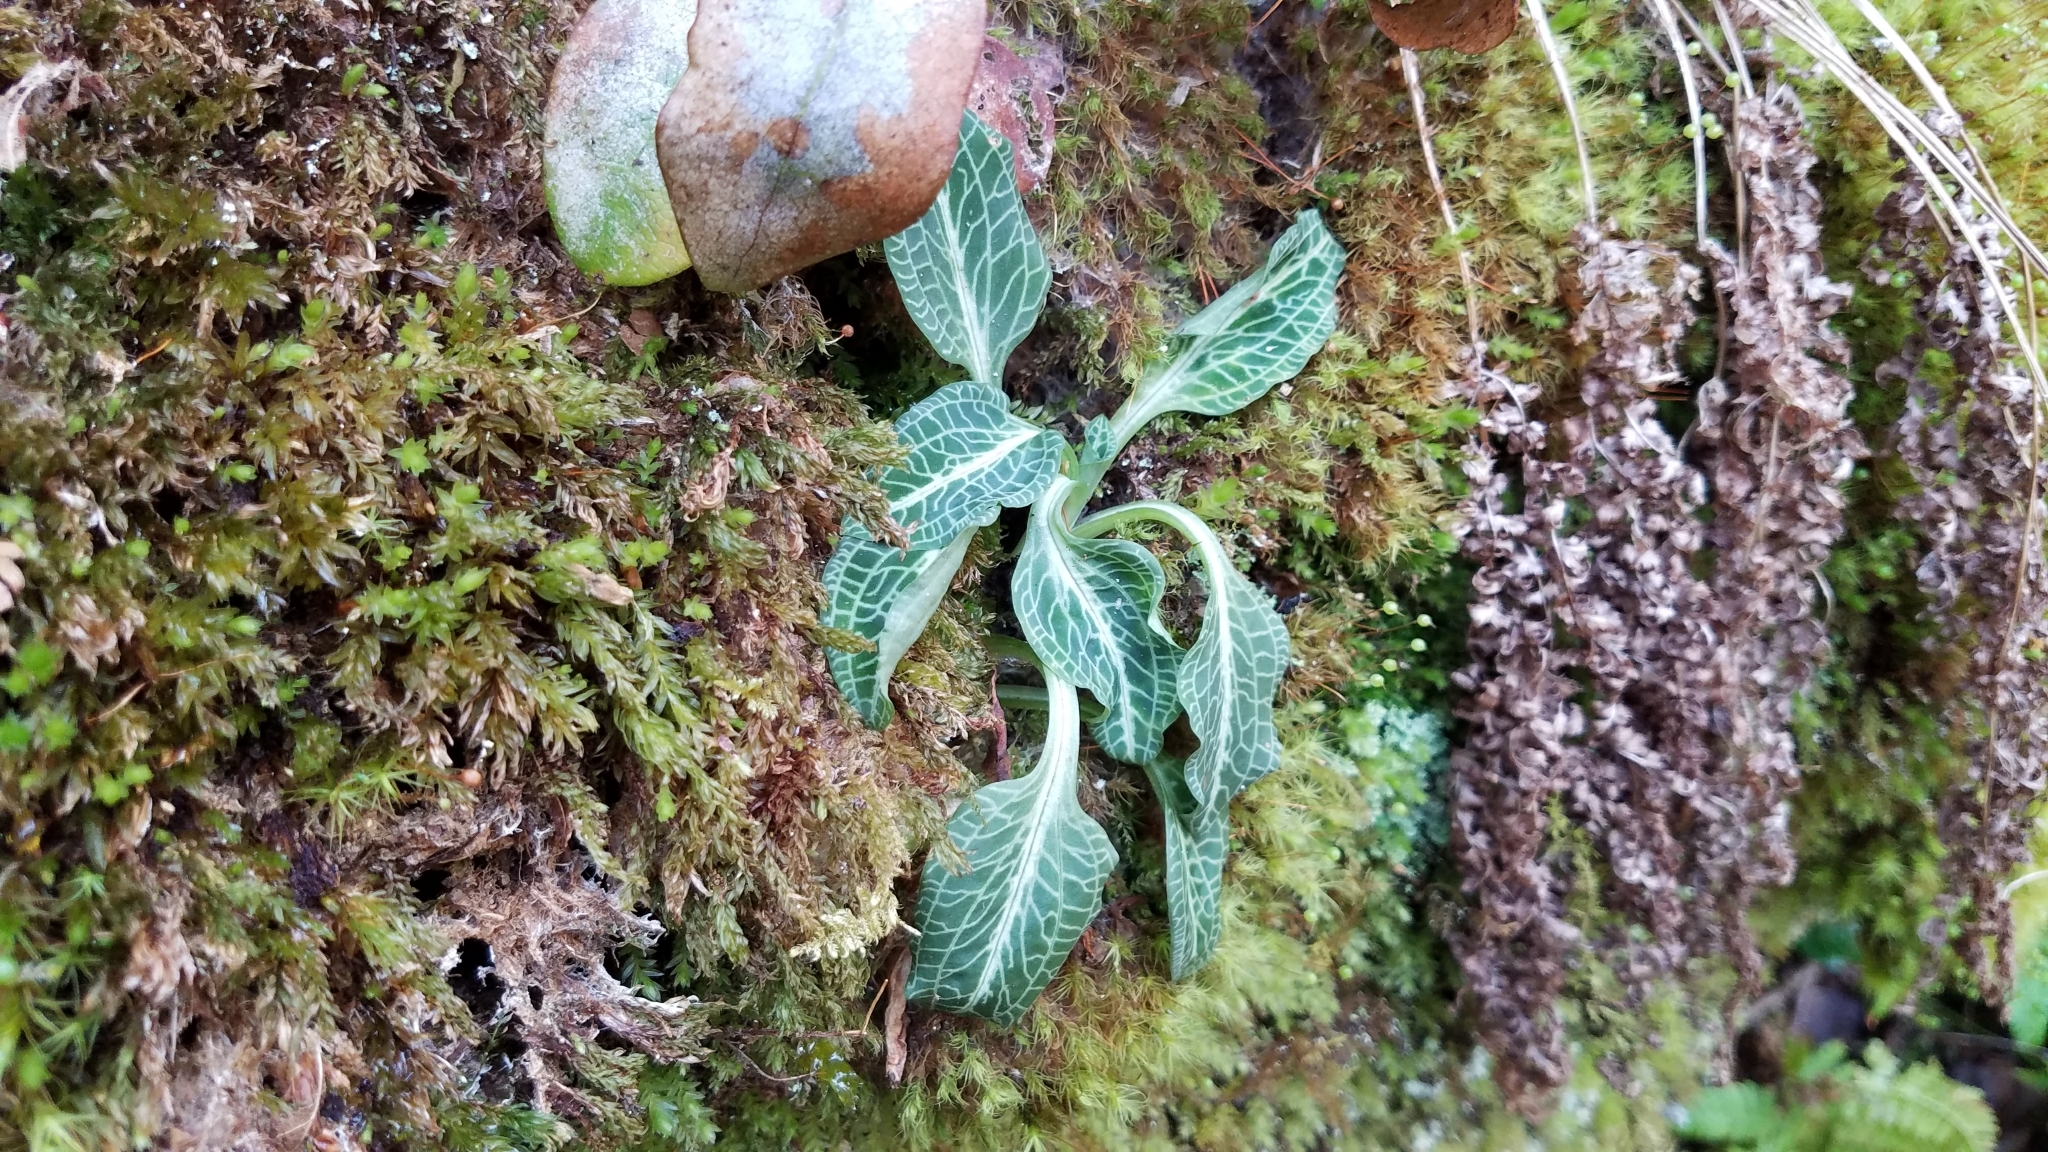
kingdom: Plantae
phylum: Tracheophyta
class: Liliopsida
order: Asparagales
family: Orchidaceae
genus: Goodyera
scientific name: Goodyera pubescens
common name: Downy rattlesnake-plantain
